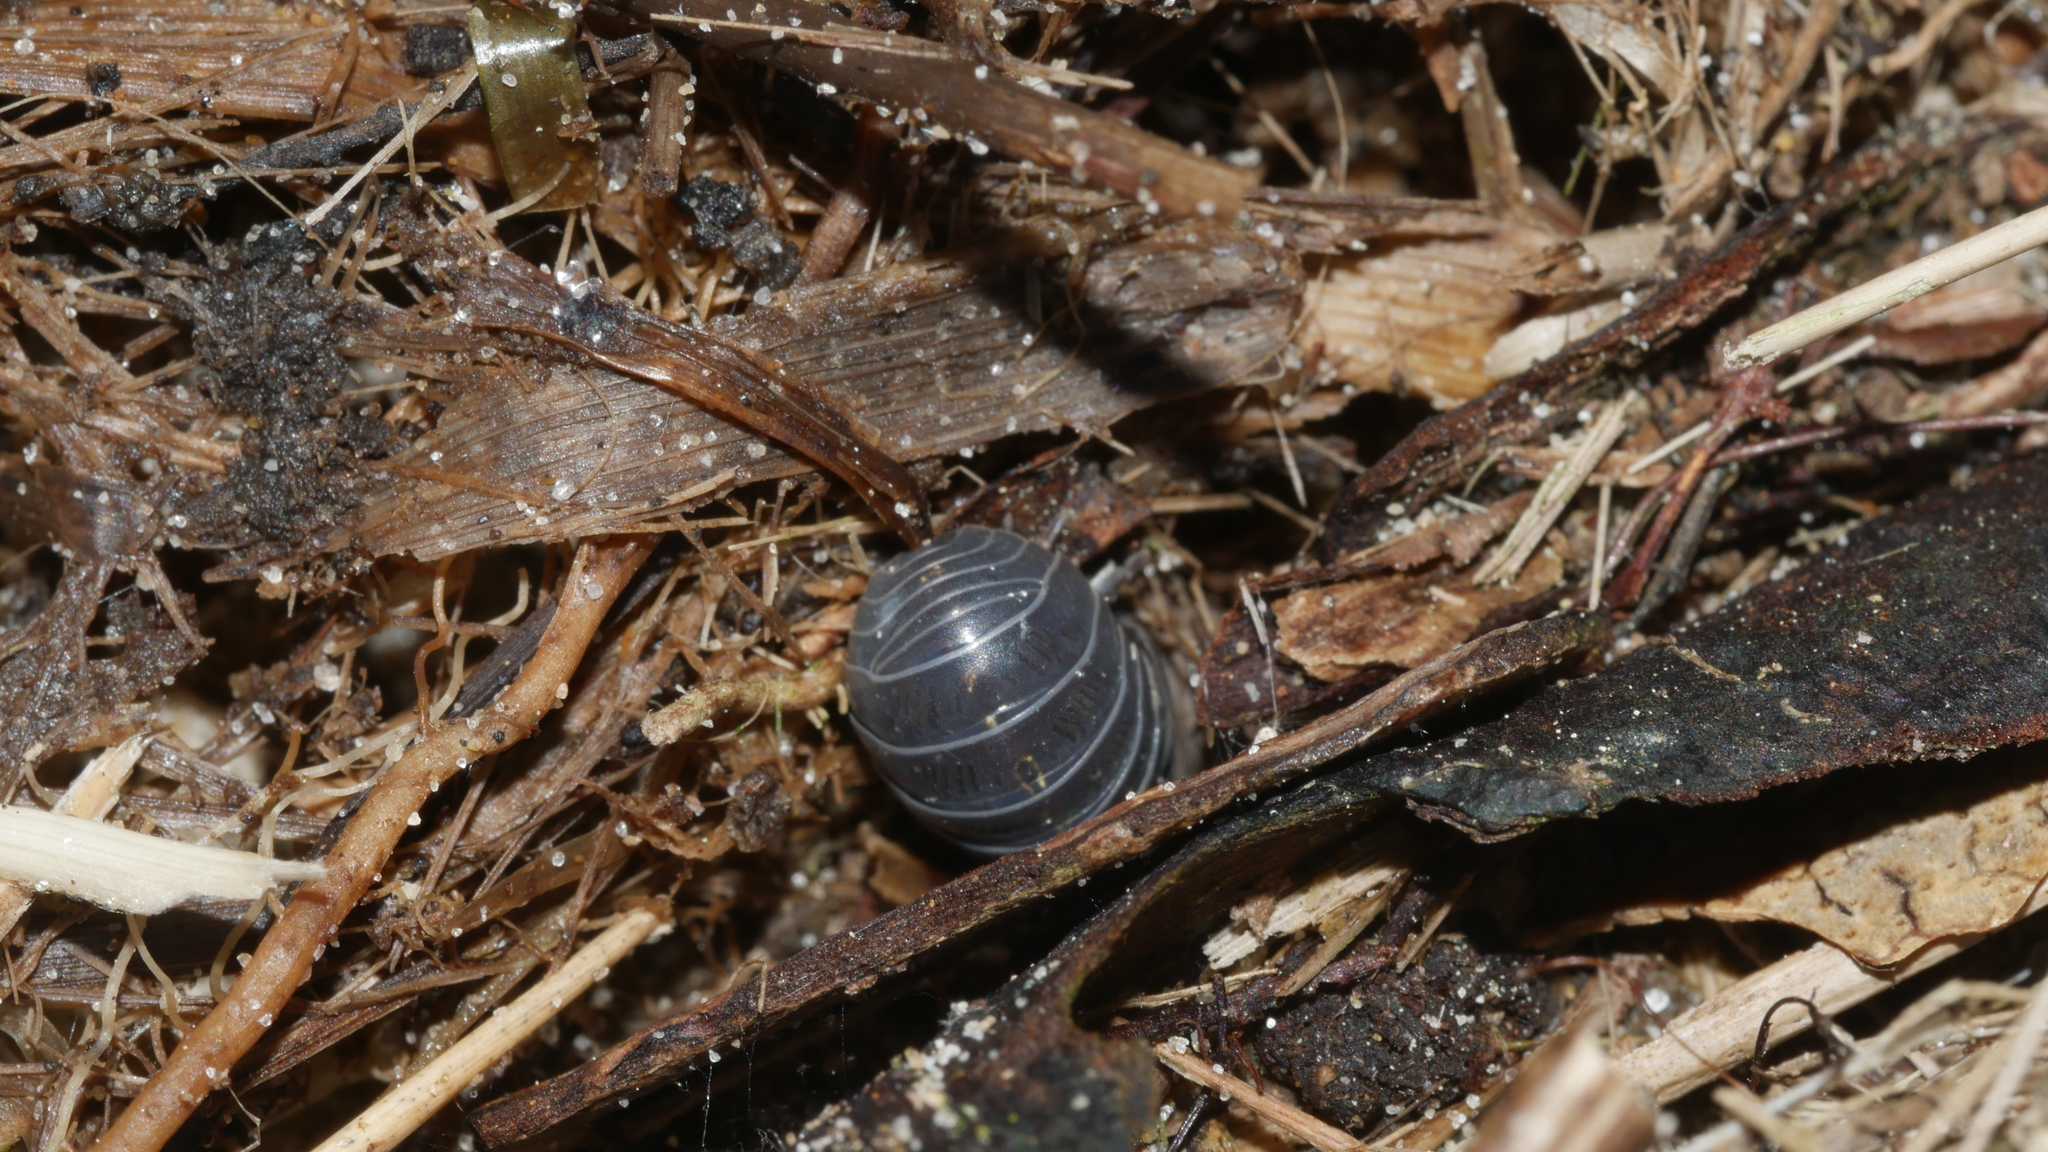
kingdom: Animalia
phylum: Arthropoda
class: Malacostraca
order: Isopoda
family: Armadillidiidae
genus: Armadillidium
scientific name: Armadillidium vulgare
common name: Common pill woodlouse
